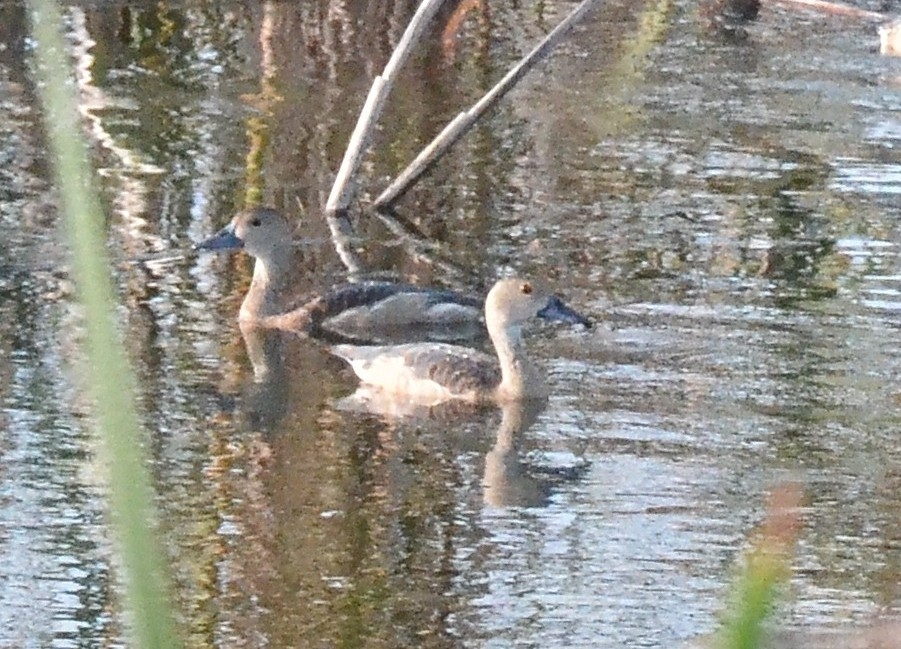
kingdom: Animalia
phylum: Chordata
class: Aves
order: Anseriformes
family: Anatidae
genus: Dendrocygna
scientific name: Dendrocygna javanica
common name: Lesser whistling-duck
